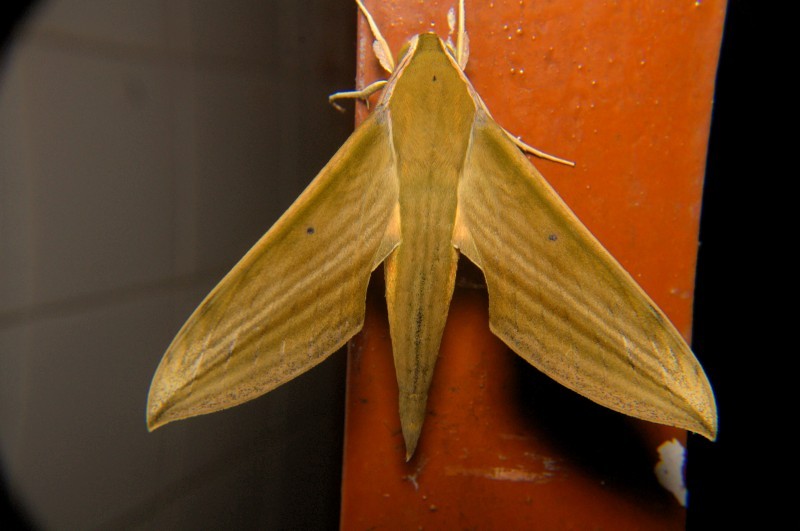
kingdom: Animalia
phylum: Arthropoda
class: Insecta
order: Lepidoptera
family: Sphingidae
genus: Cechetra
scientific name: Cechetra minor
